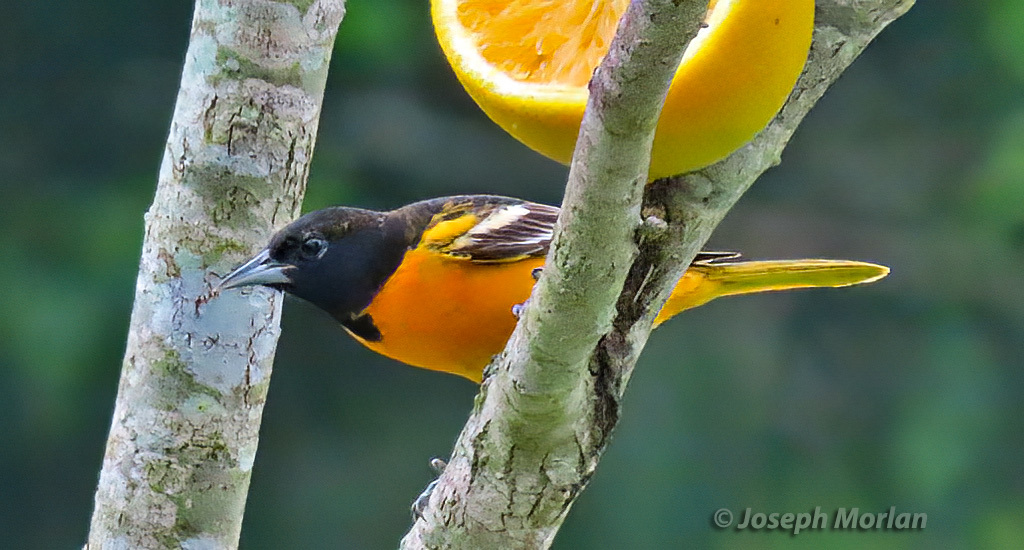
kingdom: Animalia
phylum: Chordata
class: Aves
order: Passeriformes
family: Icteridae
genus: Icterus
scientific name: Icterus galbula
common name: Baltimore oriole
